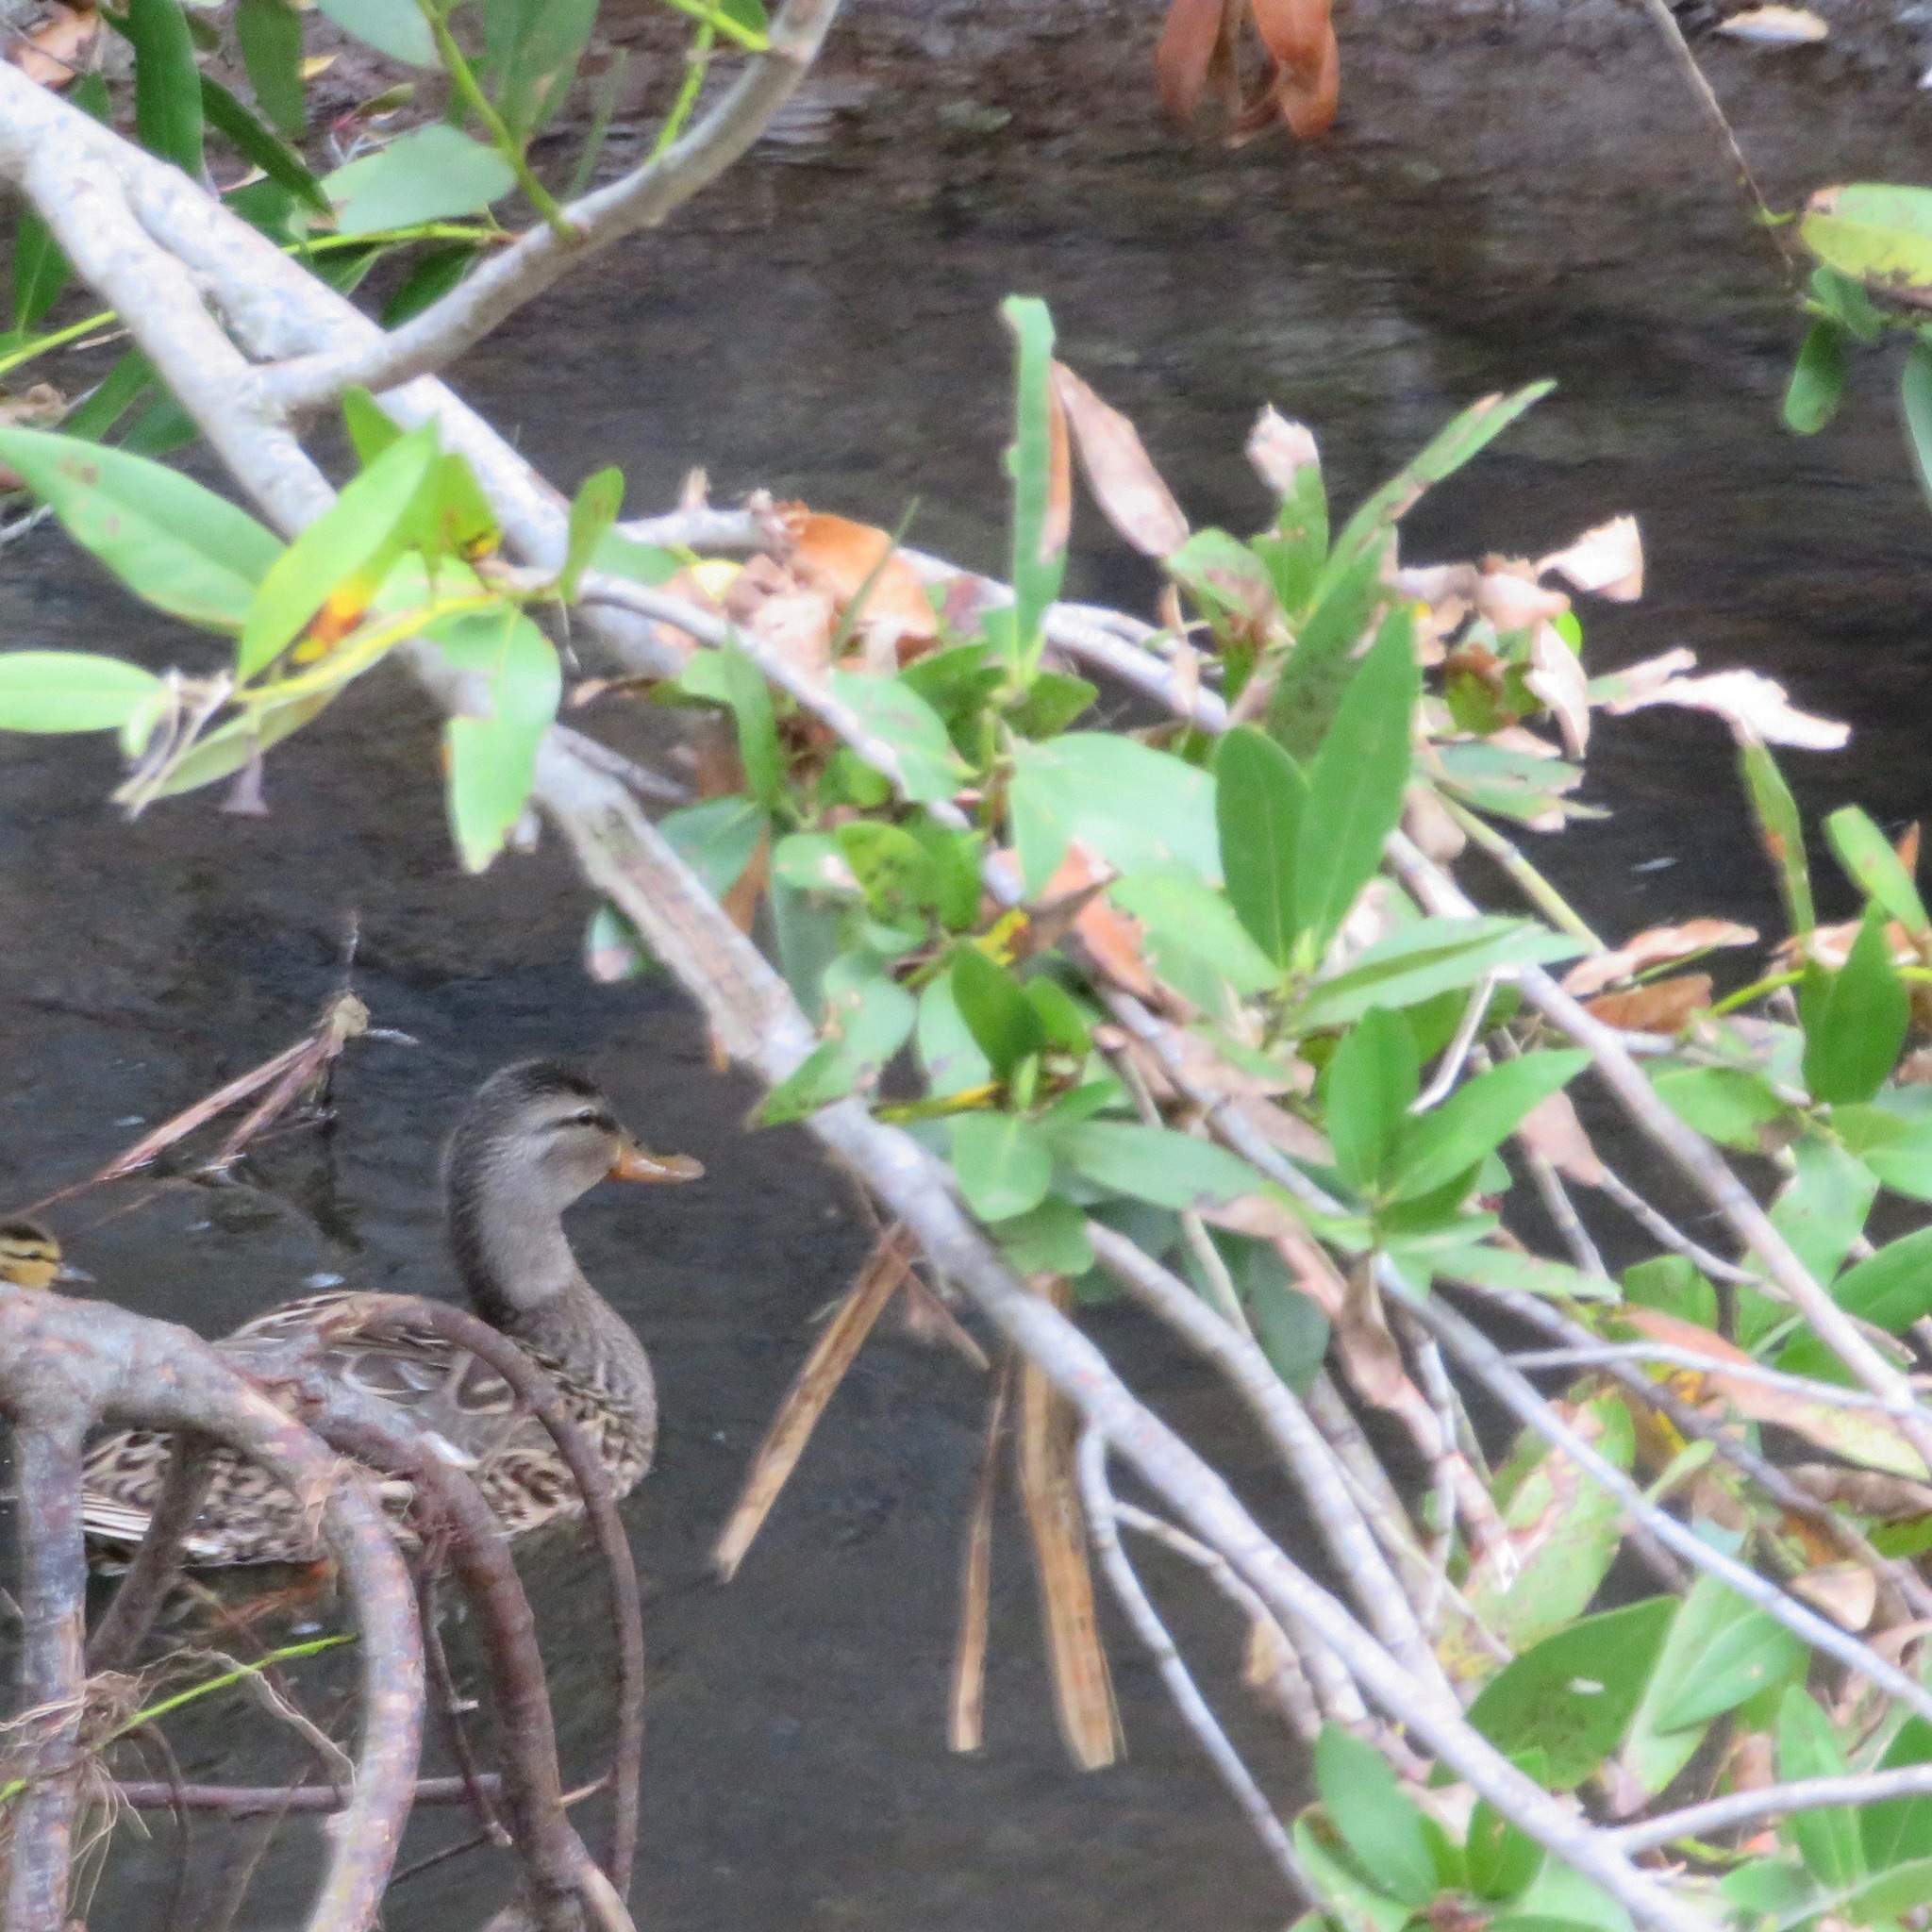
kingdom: Animalia
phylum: Chordata
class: Aves
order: Anseriformes
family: Anatidae
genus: Anas
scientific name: Anas platyrhynchos
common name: Mallard
